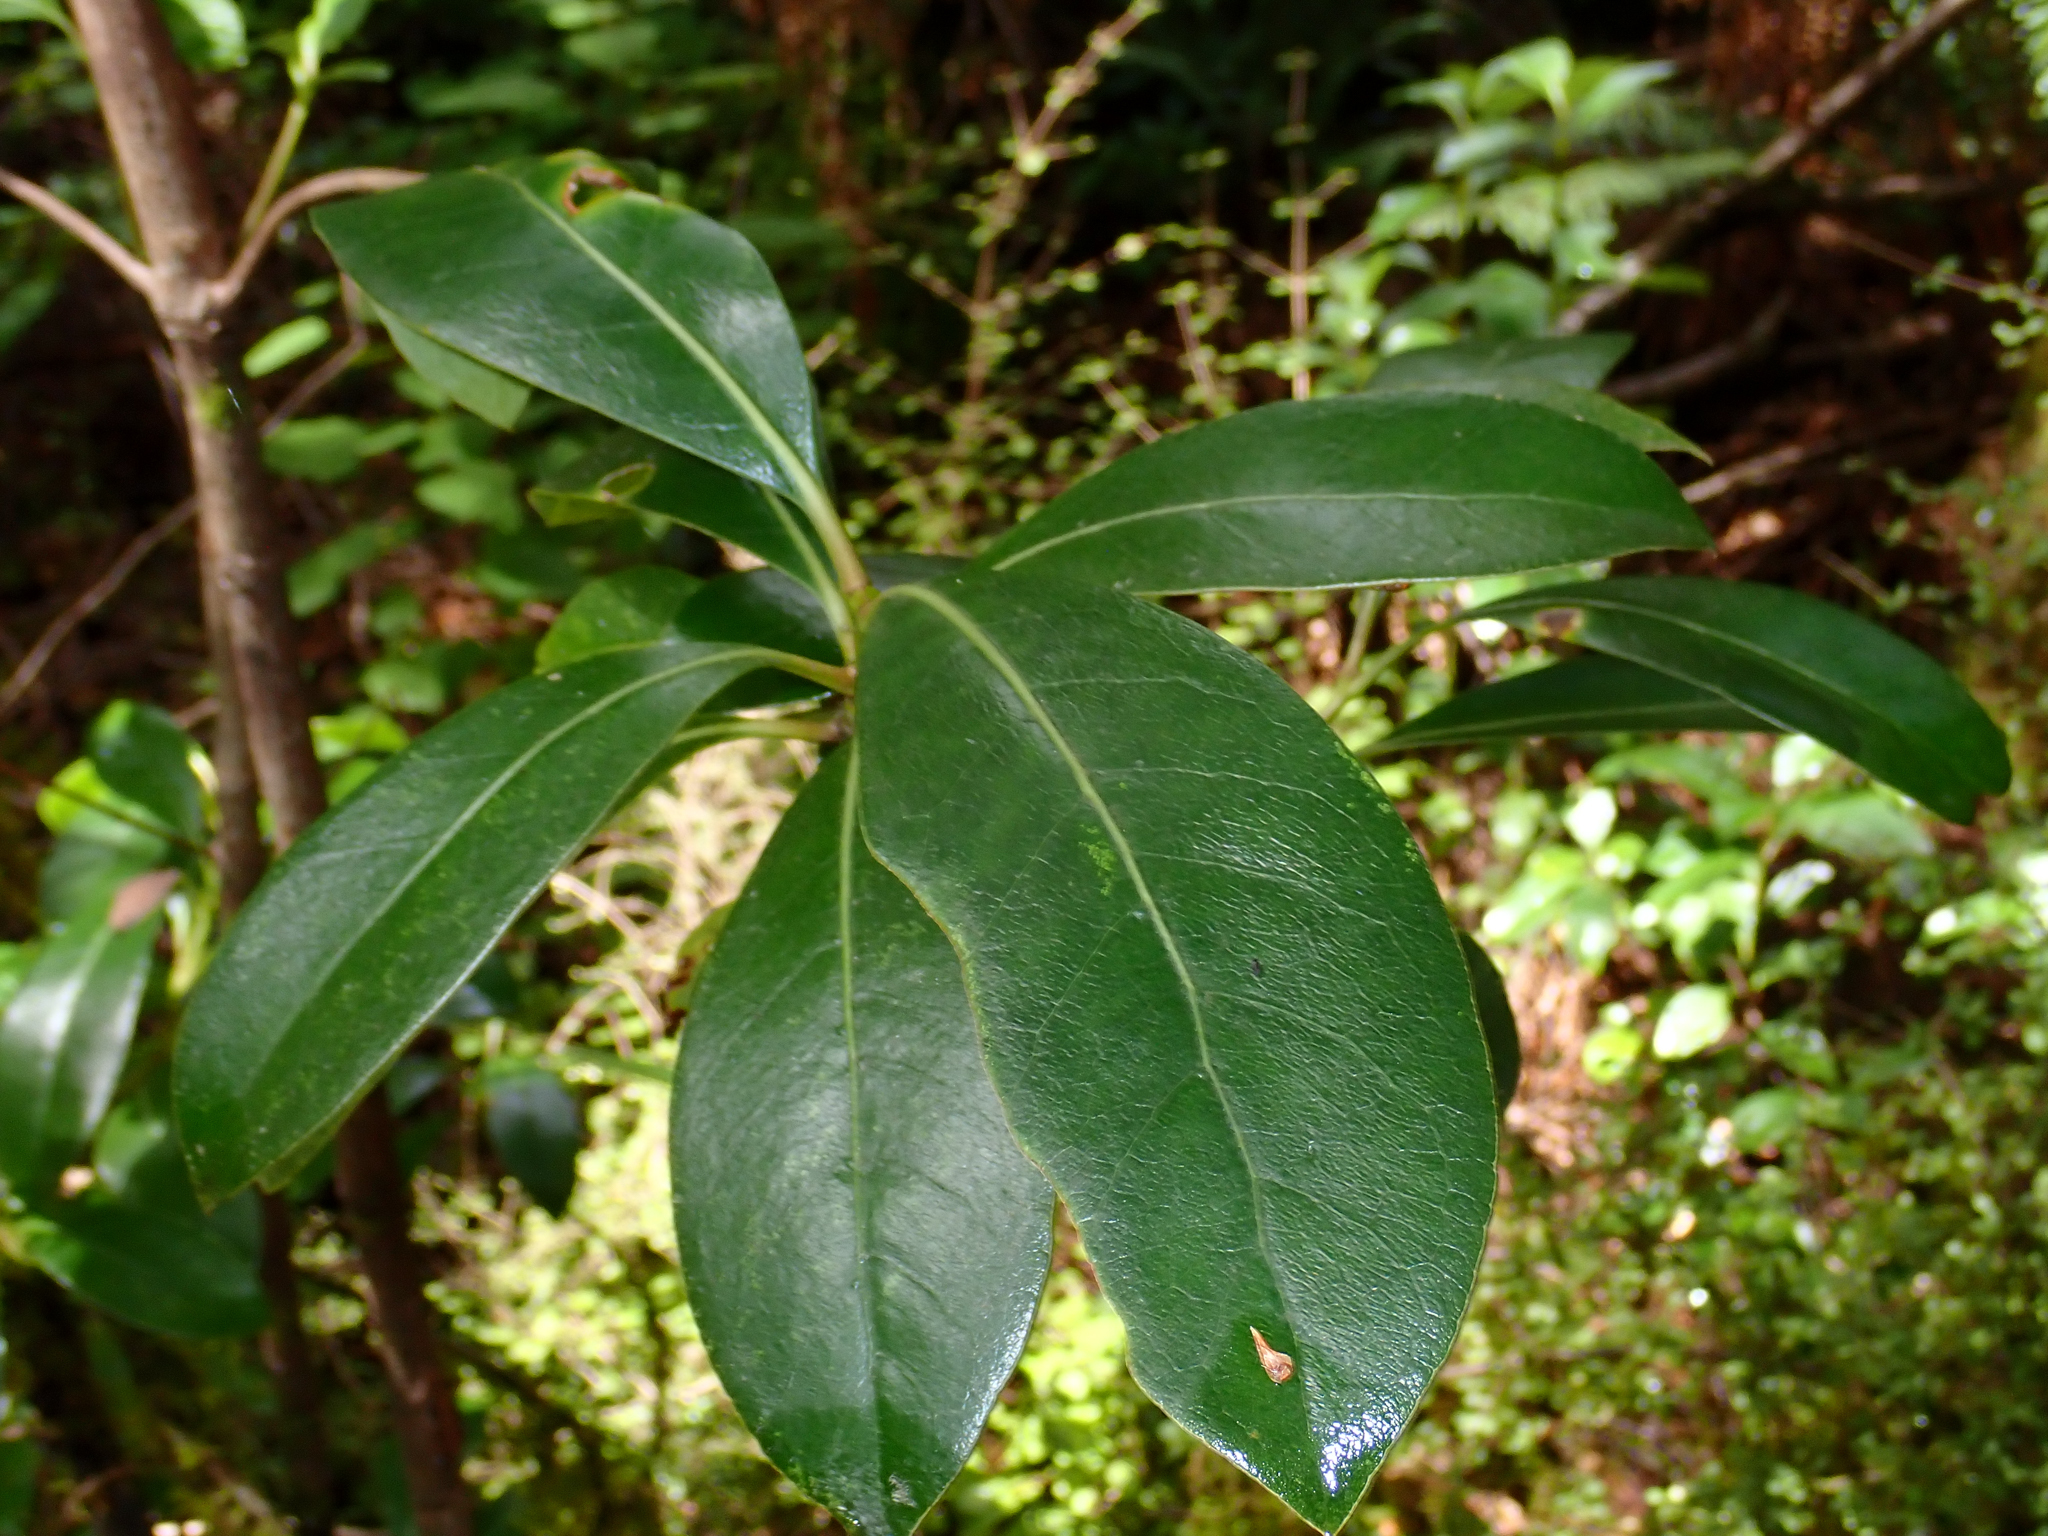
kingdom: Plantae
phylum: Tracheophyta
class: Magnoliopsida
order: Gentianales
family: Rubiaceae
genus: Coprosma
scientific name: Coprosma lucida
